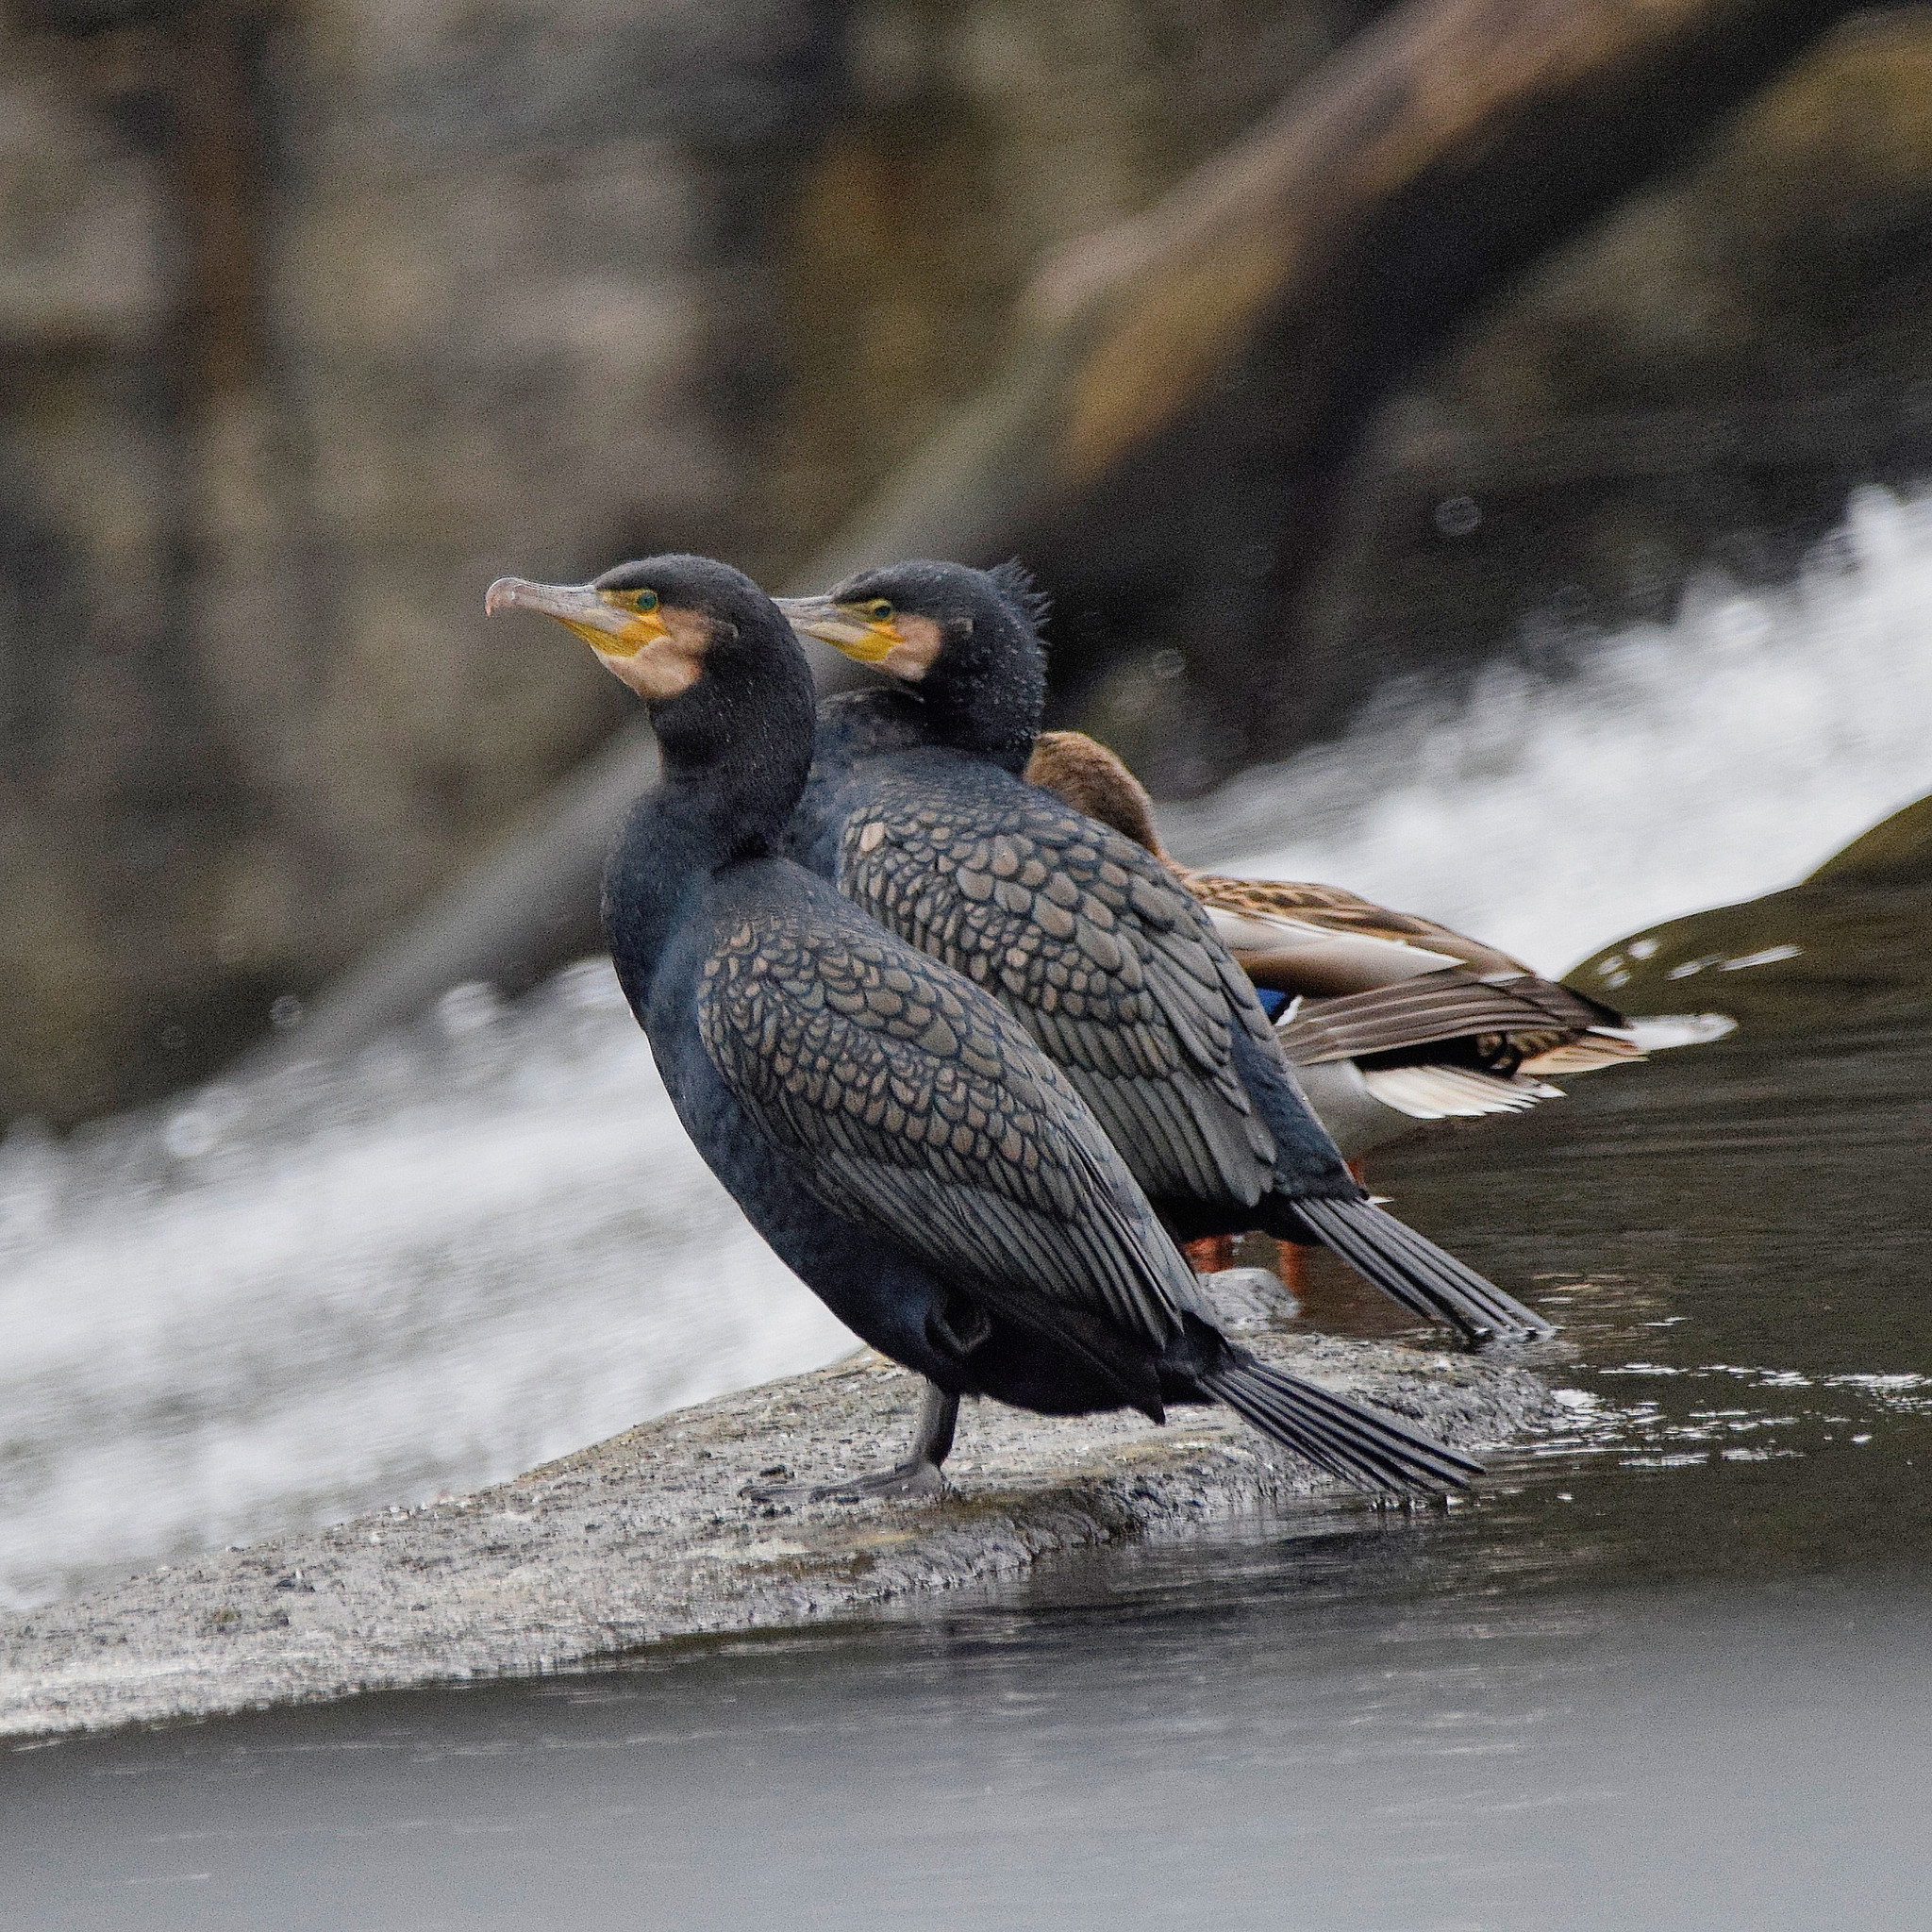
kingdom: Animalia
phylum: Chordata
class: Aves
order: Suliformes
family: Phalacrocoracidae
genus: Phalacrocorax
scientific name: Phalacrocorax carbo
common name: Great cormorant
